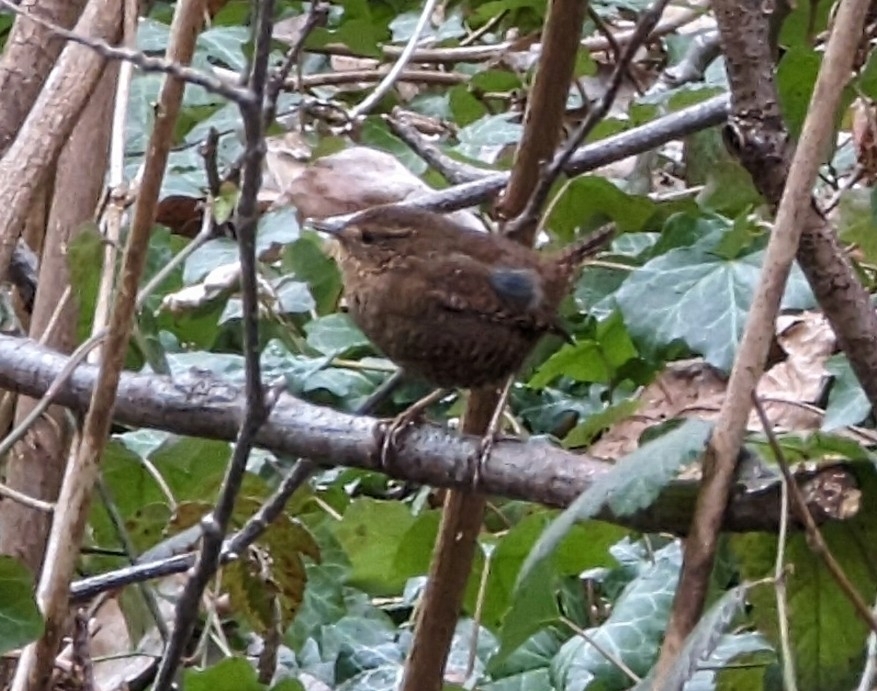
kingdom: Animalia
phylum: Chordata
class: Aves
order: Passeriformes
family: Troglodytidae
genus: Troglodytes
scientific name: Troglodytes pacificus
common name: Pacific wren
